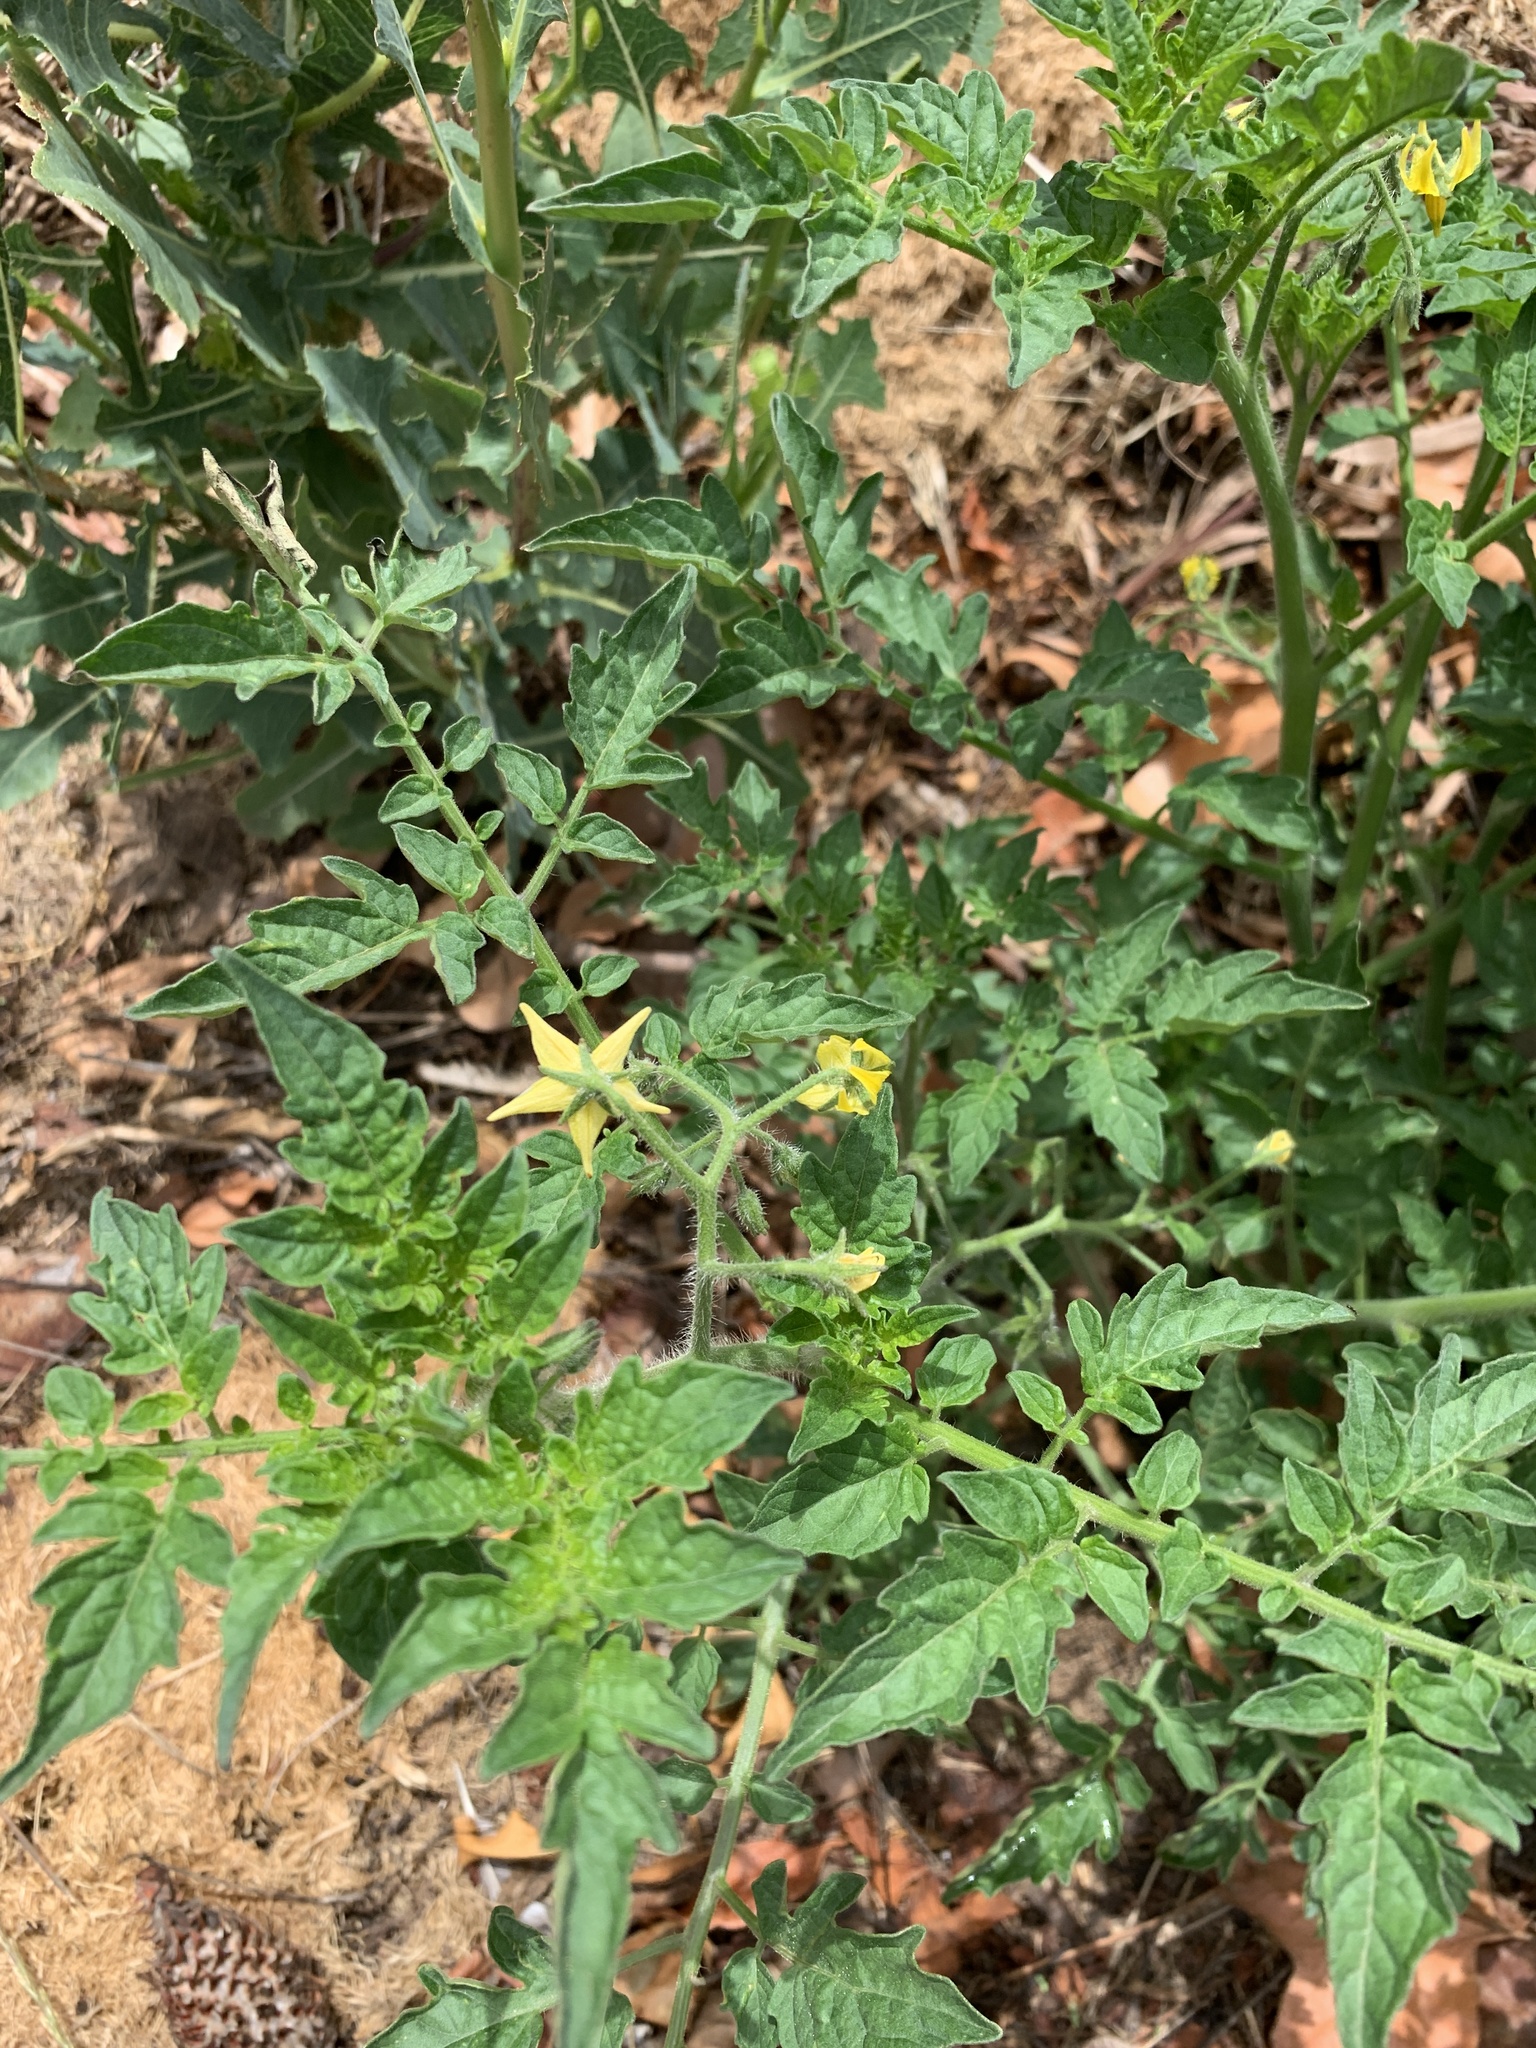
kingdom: Plantae
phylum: Tracheophyta
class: Magnoliopsida
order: Solanales
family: Solanaceae
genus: Solanum
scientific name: Solanum lycopersicum
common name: Garden tomato
